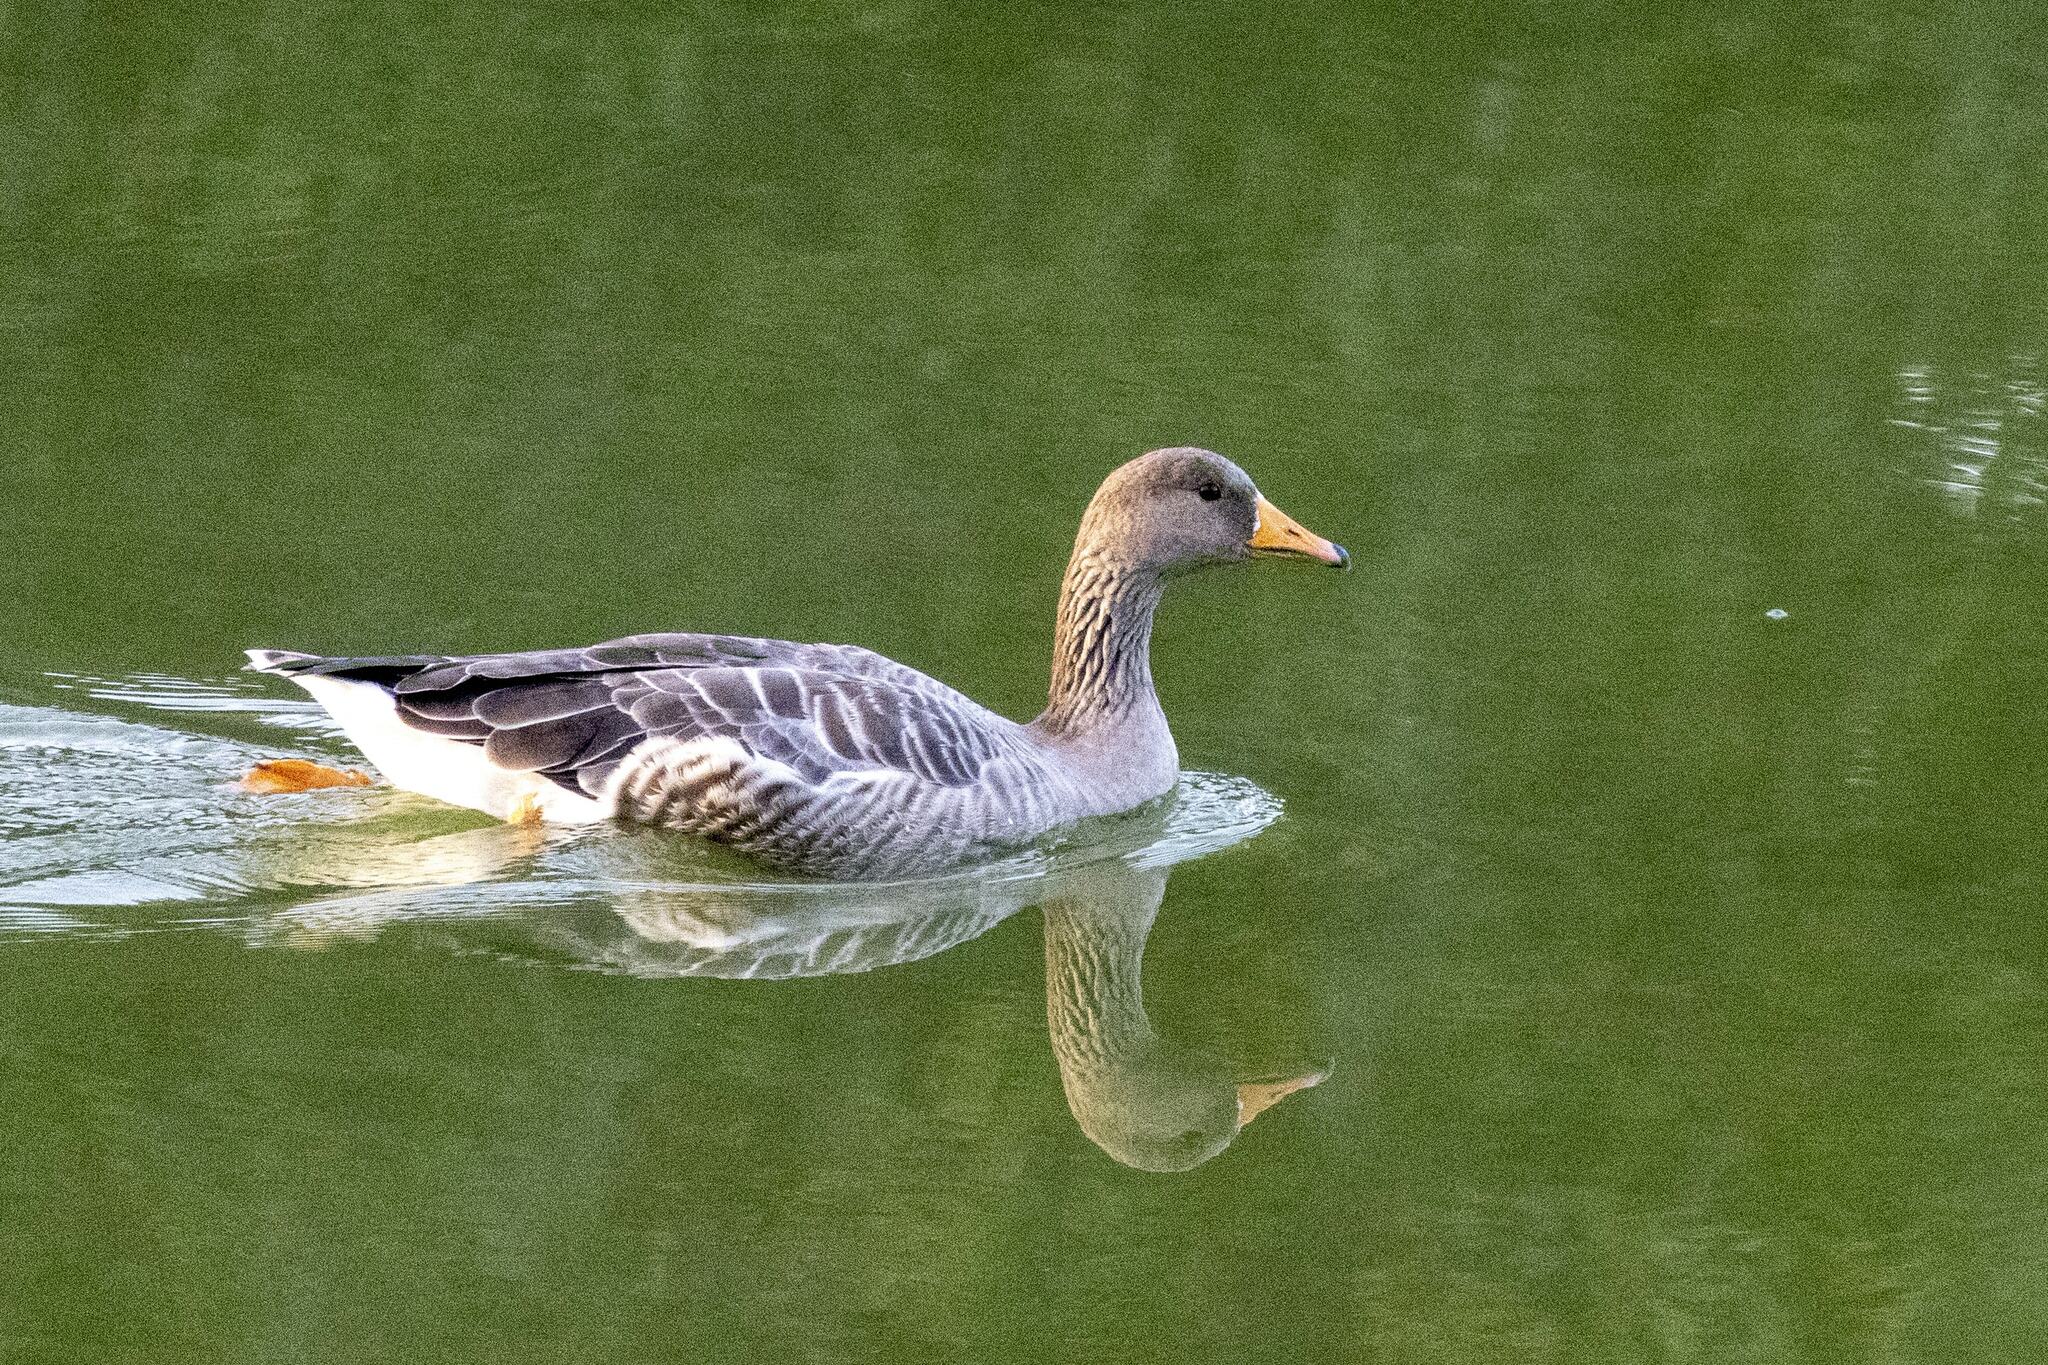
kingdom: Animalia
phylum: Chordata
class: Aves
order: Anseriformes
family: Anatidae
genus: Anser
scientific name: Anser anser
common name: Greylag goose
